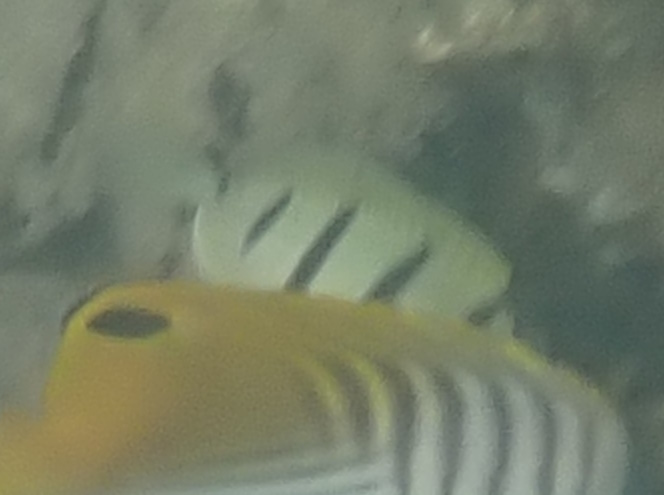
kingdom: Animalia
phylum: Chordata
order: Perciformes
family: Acanthuridae
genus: Acanthurus
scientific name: Acanthurus triostegus
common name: Convict surgeonfish
